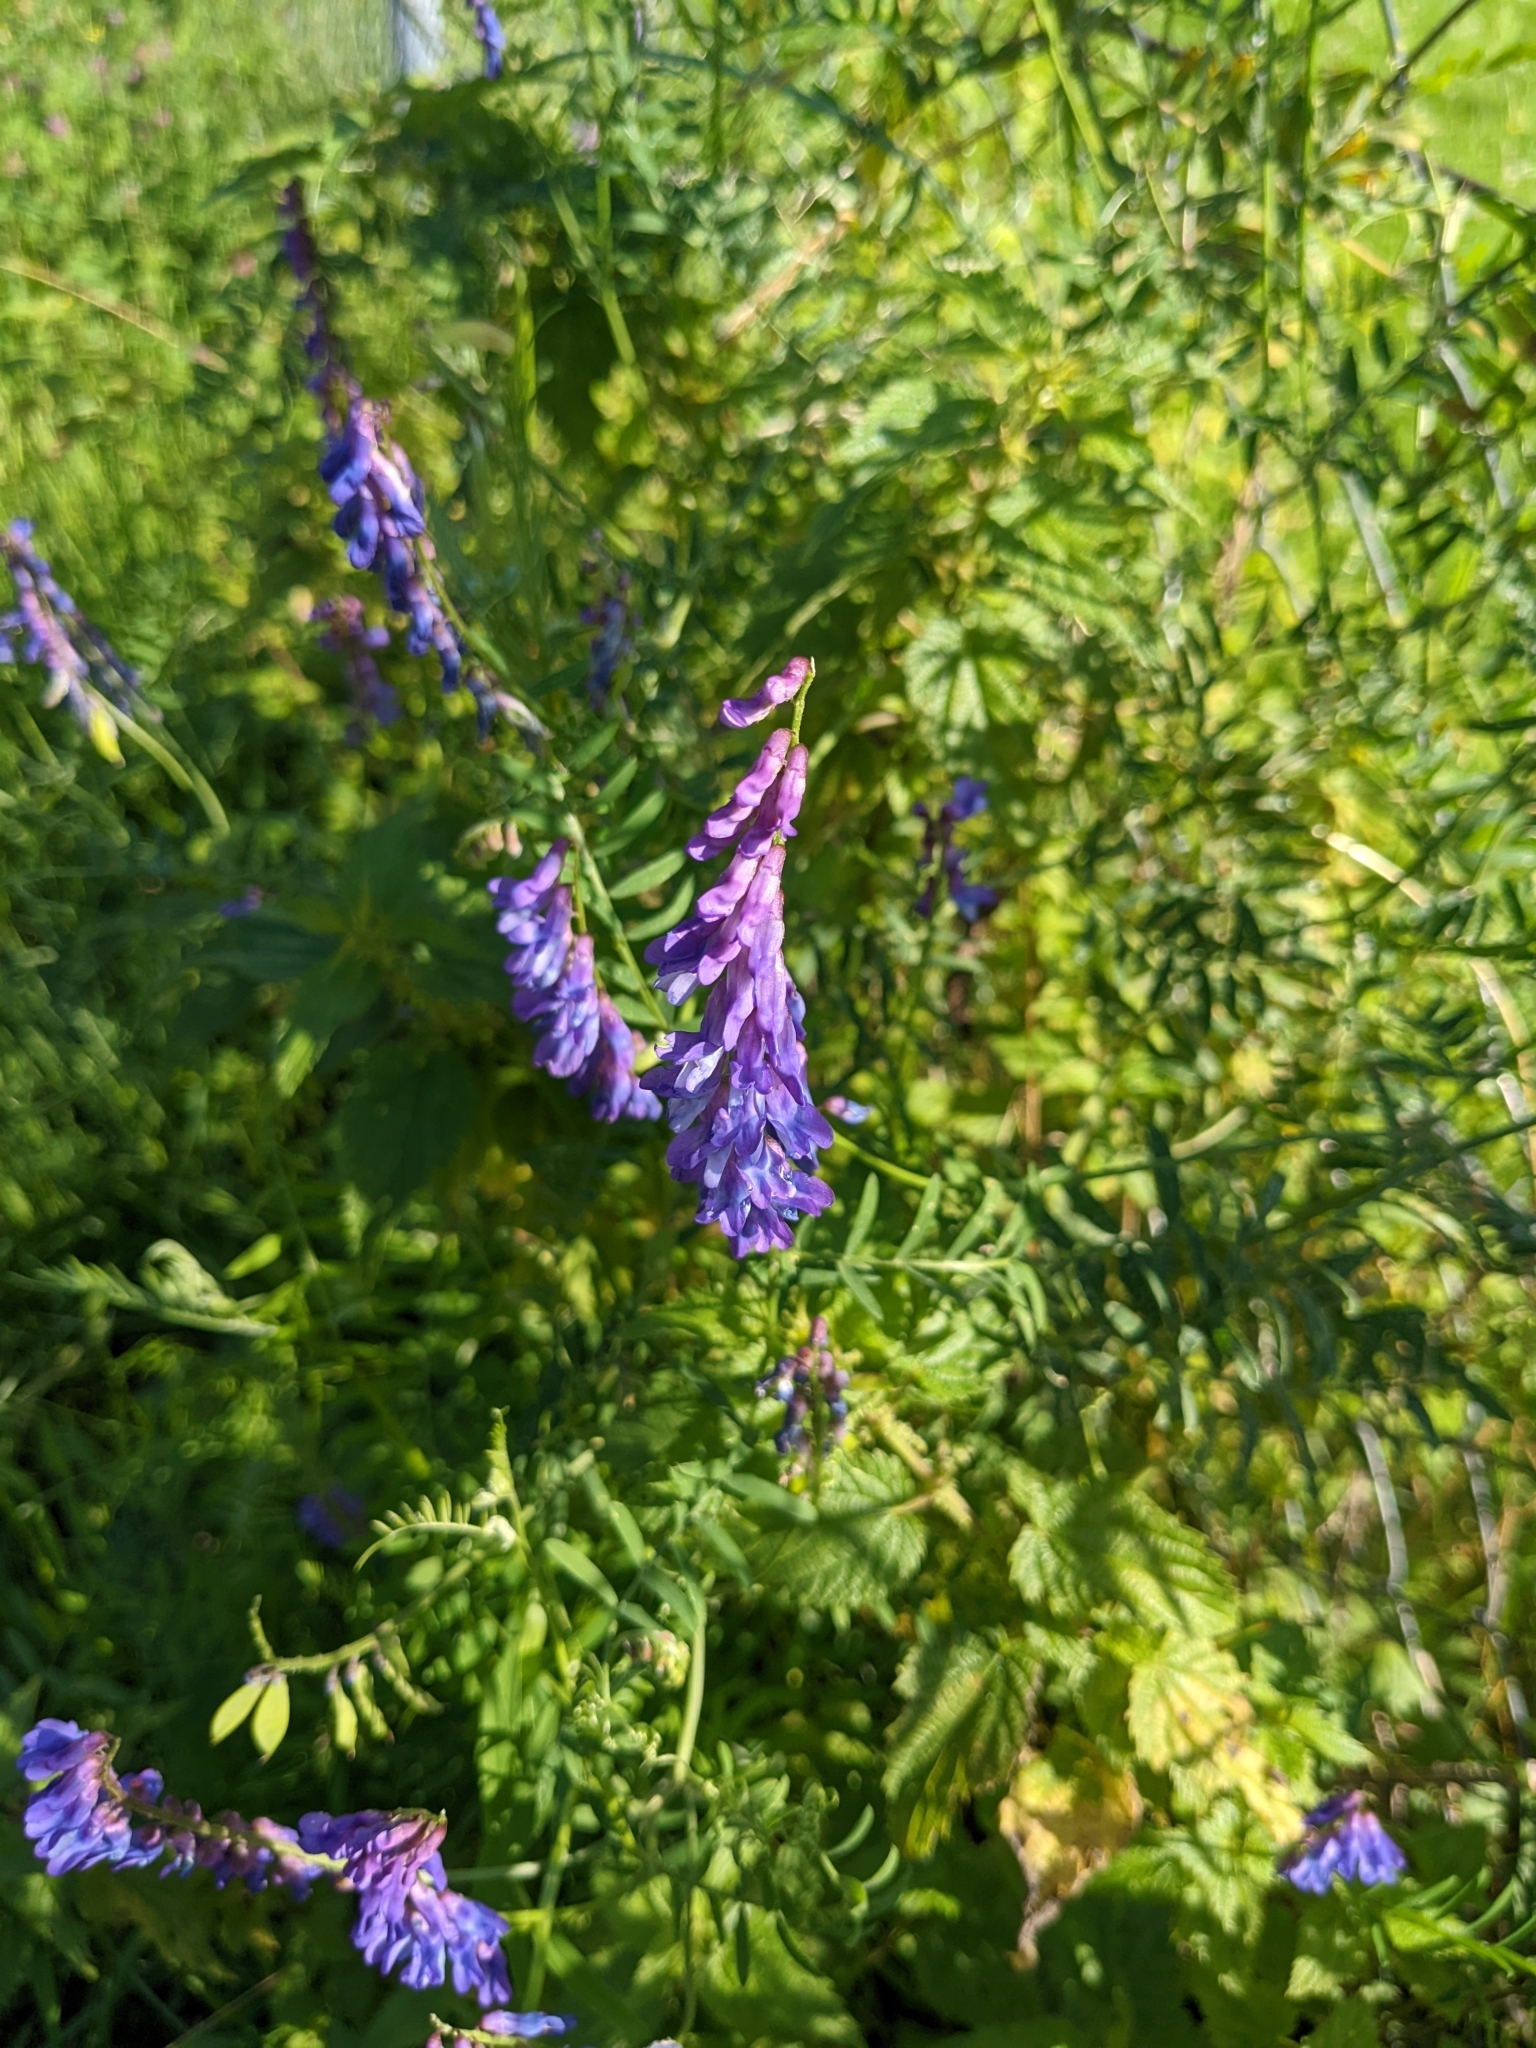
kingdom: Plantae
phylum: Tracheophyta
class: Magnoliopsida
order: Fabales
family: Fabaceae
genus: Vicia
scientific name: Vicia cracca
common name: Bird vetch
